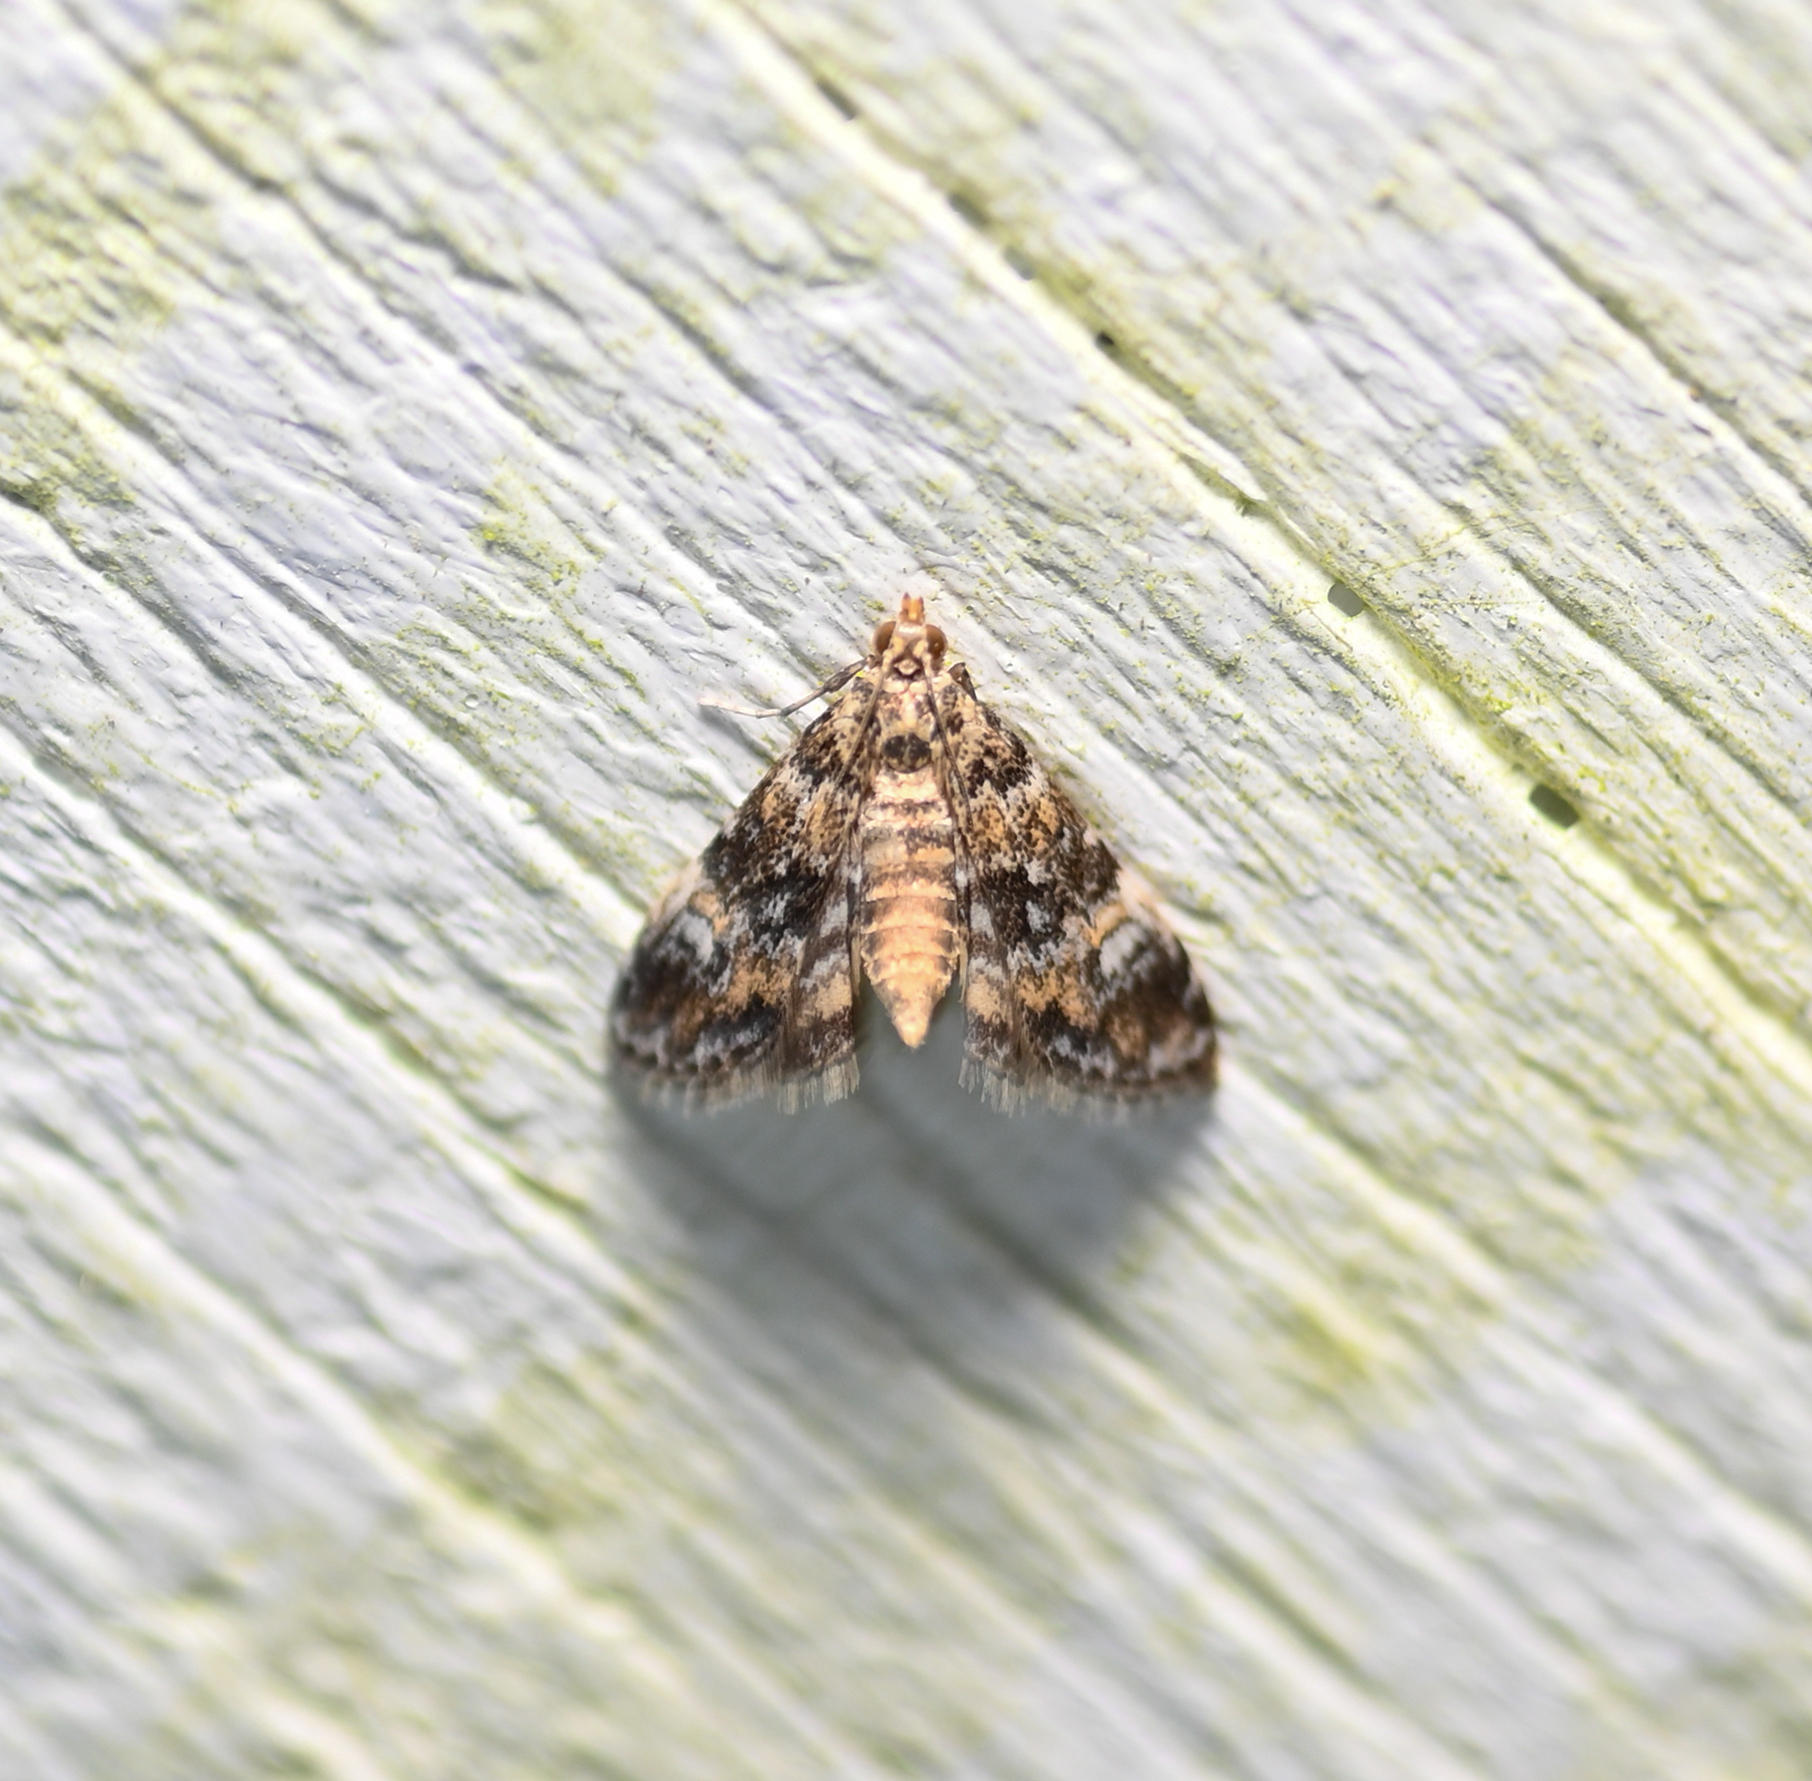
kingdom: Animalia
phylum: Arthropoda
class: Insecta
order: Lepidoptera
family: Crambidae
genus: Elophila
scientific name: Elophila obliteralis
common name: Waterlily leafcutter moth
